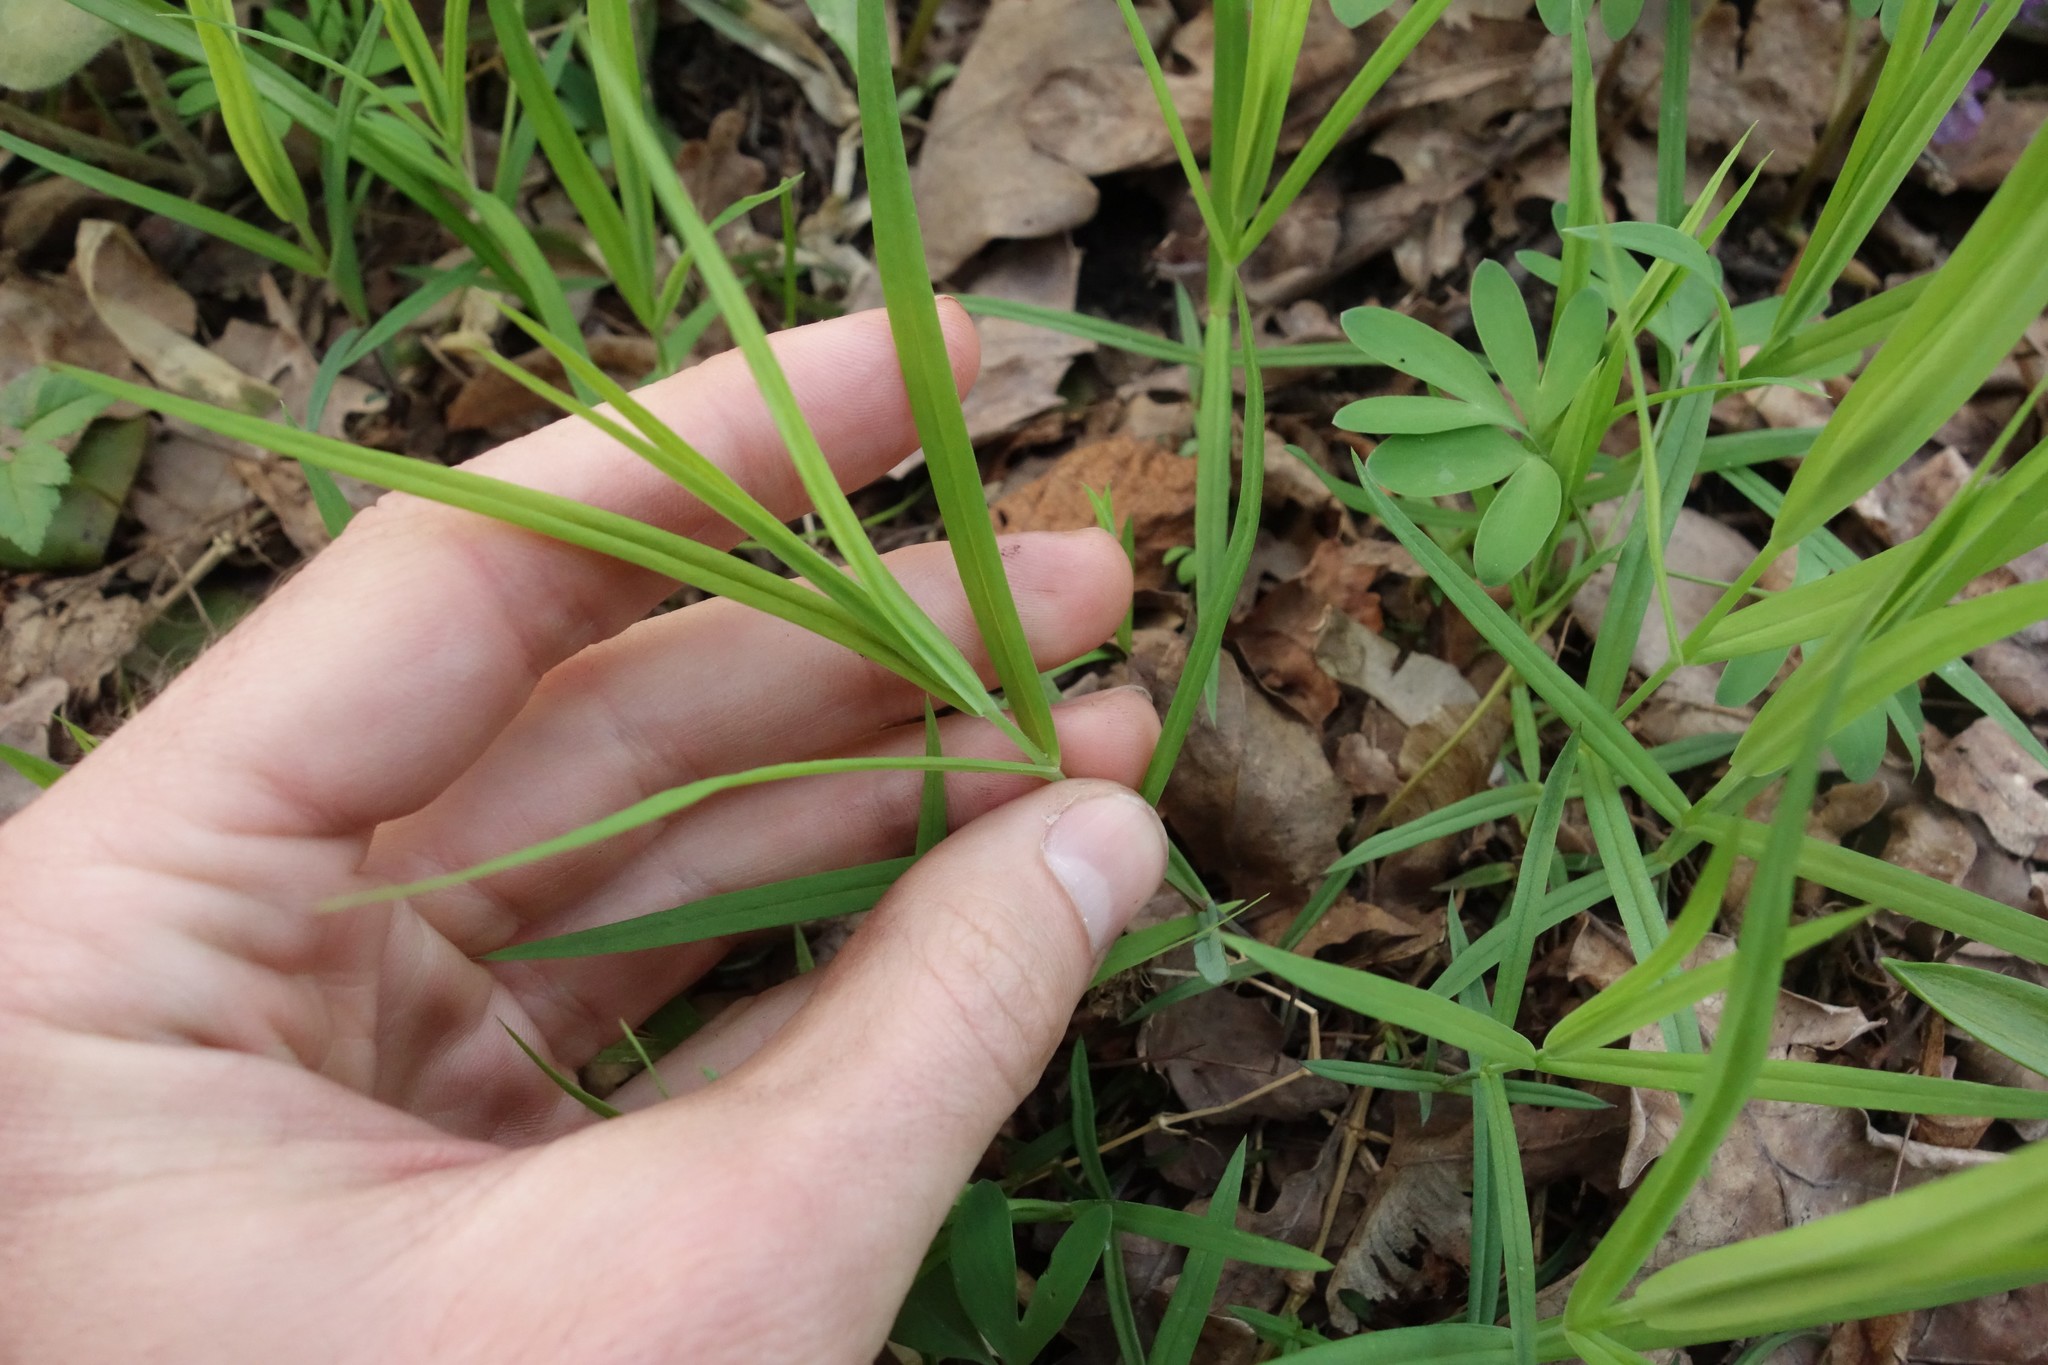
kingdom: Plantae
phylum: Tracheophyta
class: Magnoliopsida
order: Caryophyllales
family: Caryophyllaceae
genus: Rabelera
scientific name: Rabelera holostea
